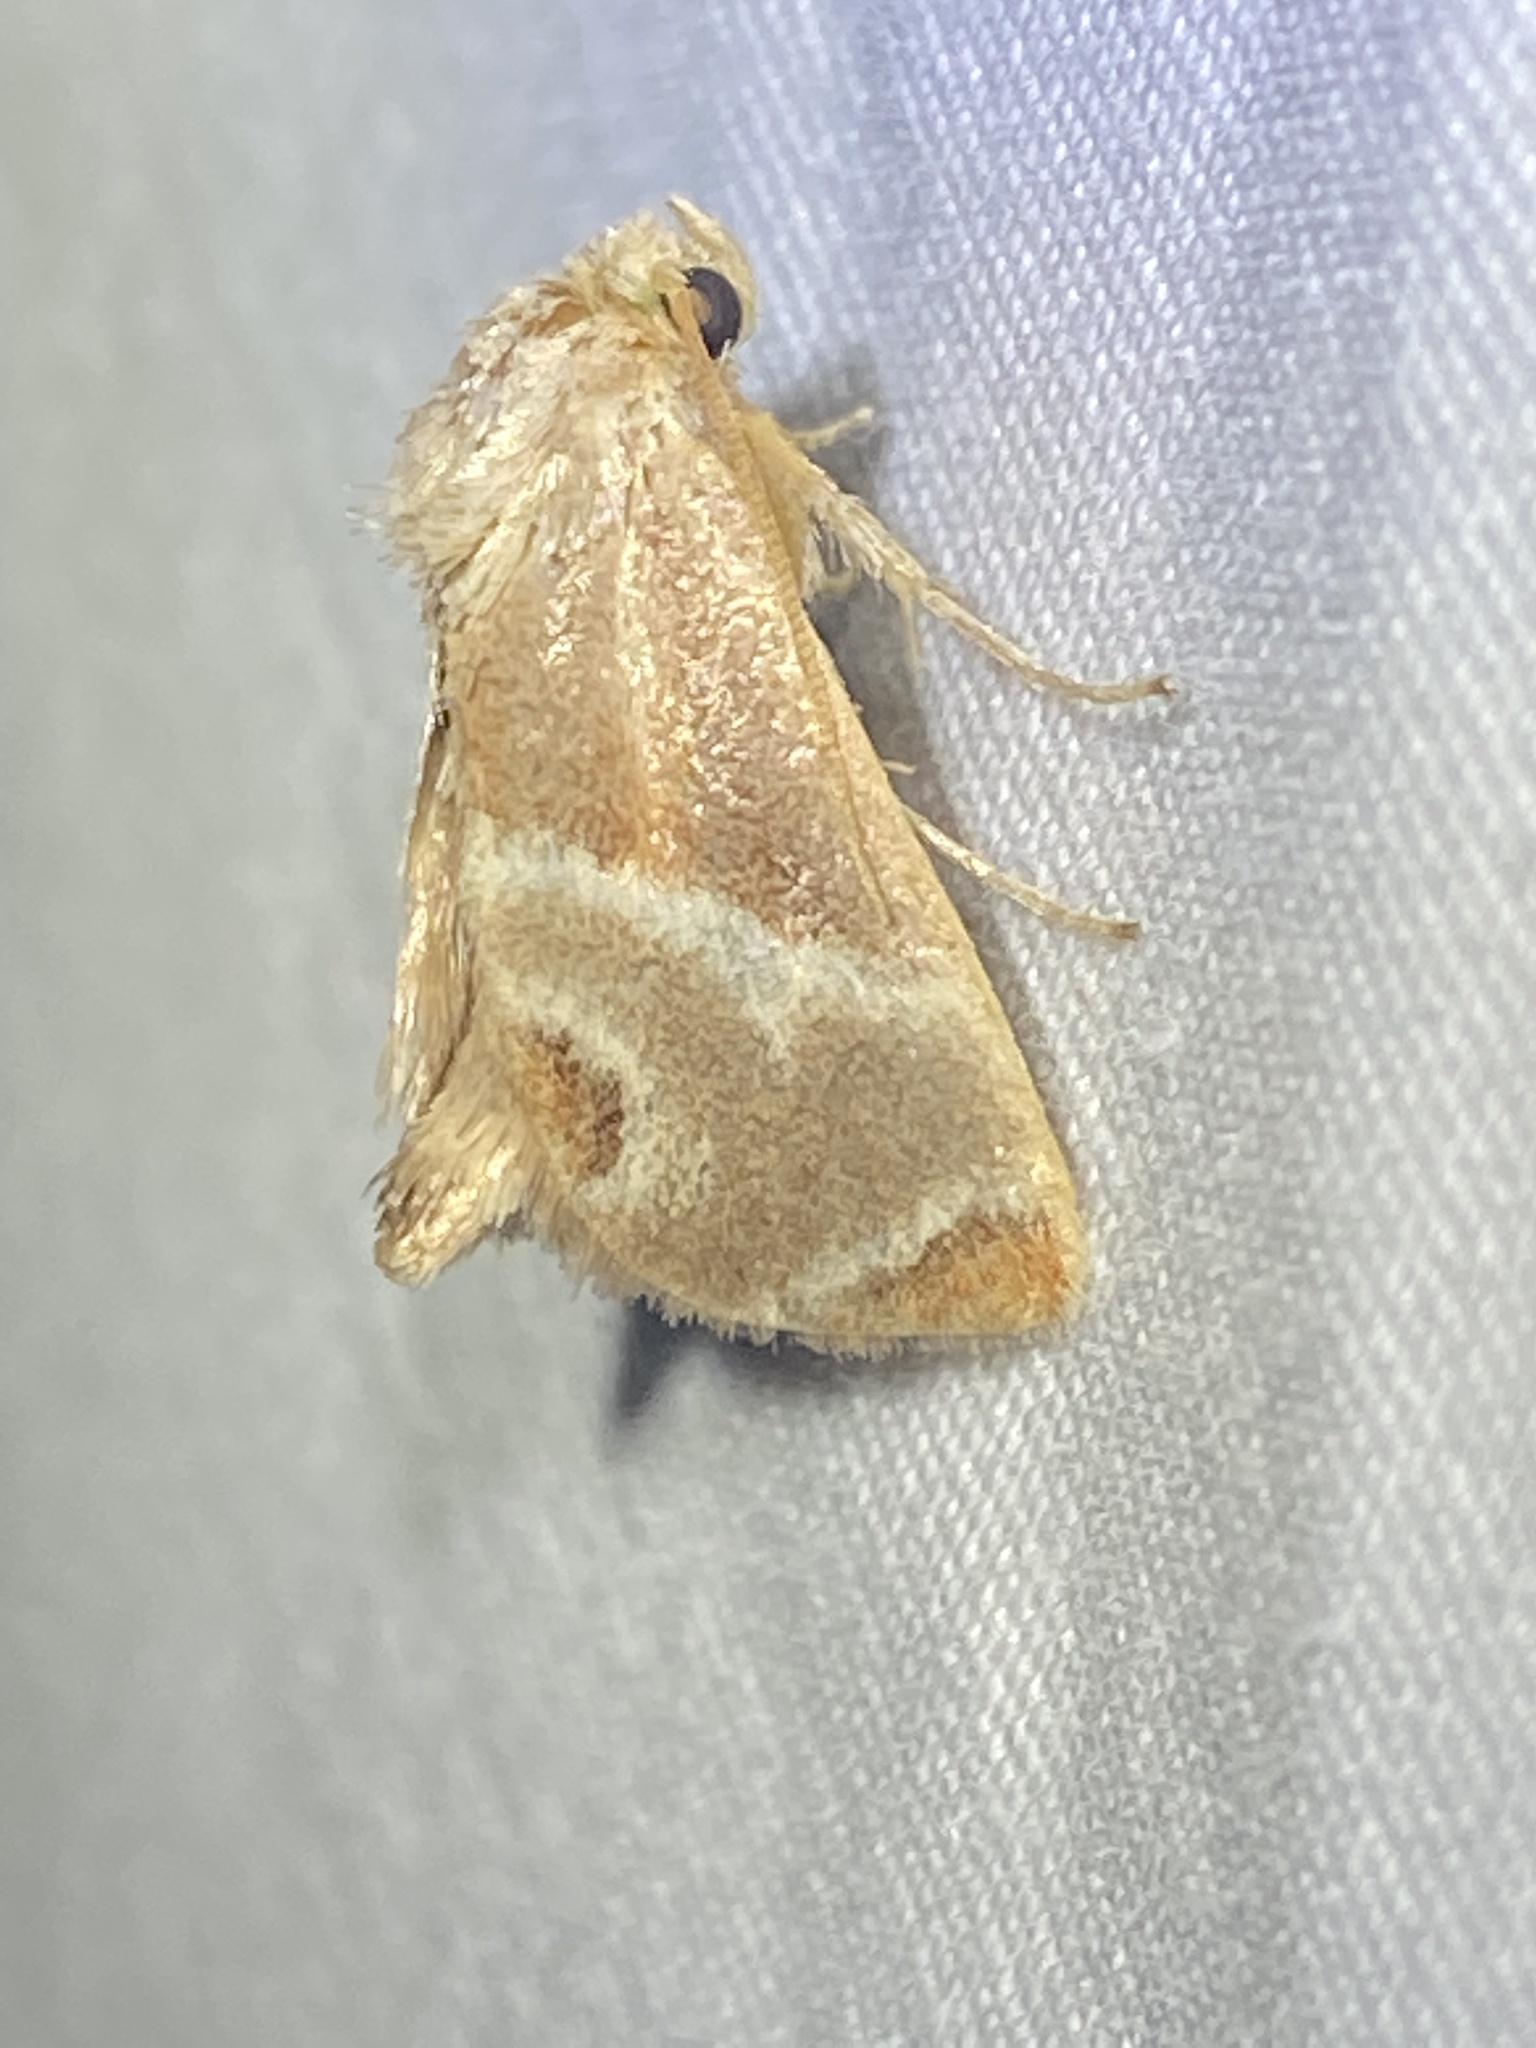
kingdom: Animalia
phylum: Arthropoda
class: Insecta
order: Lepidoptera
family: Limacodidae
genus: Apoda
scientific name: Apoda biguttata
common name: Shagreened slug moth
